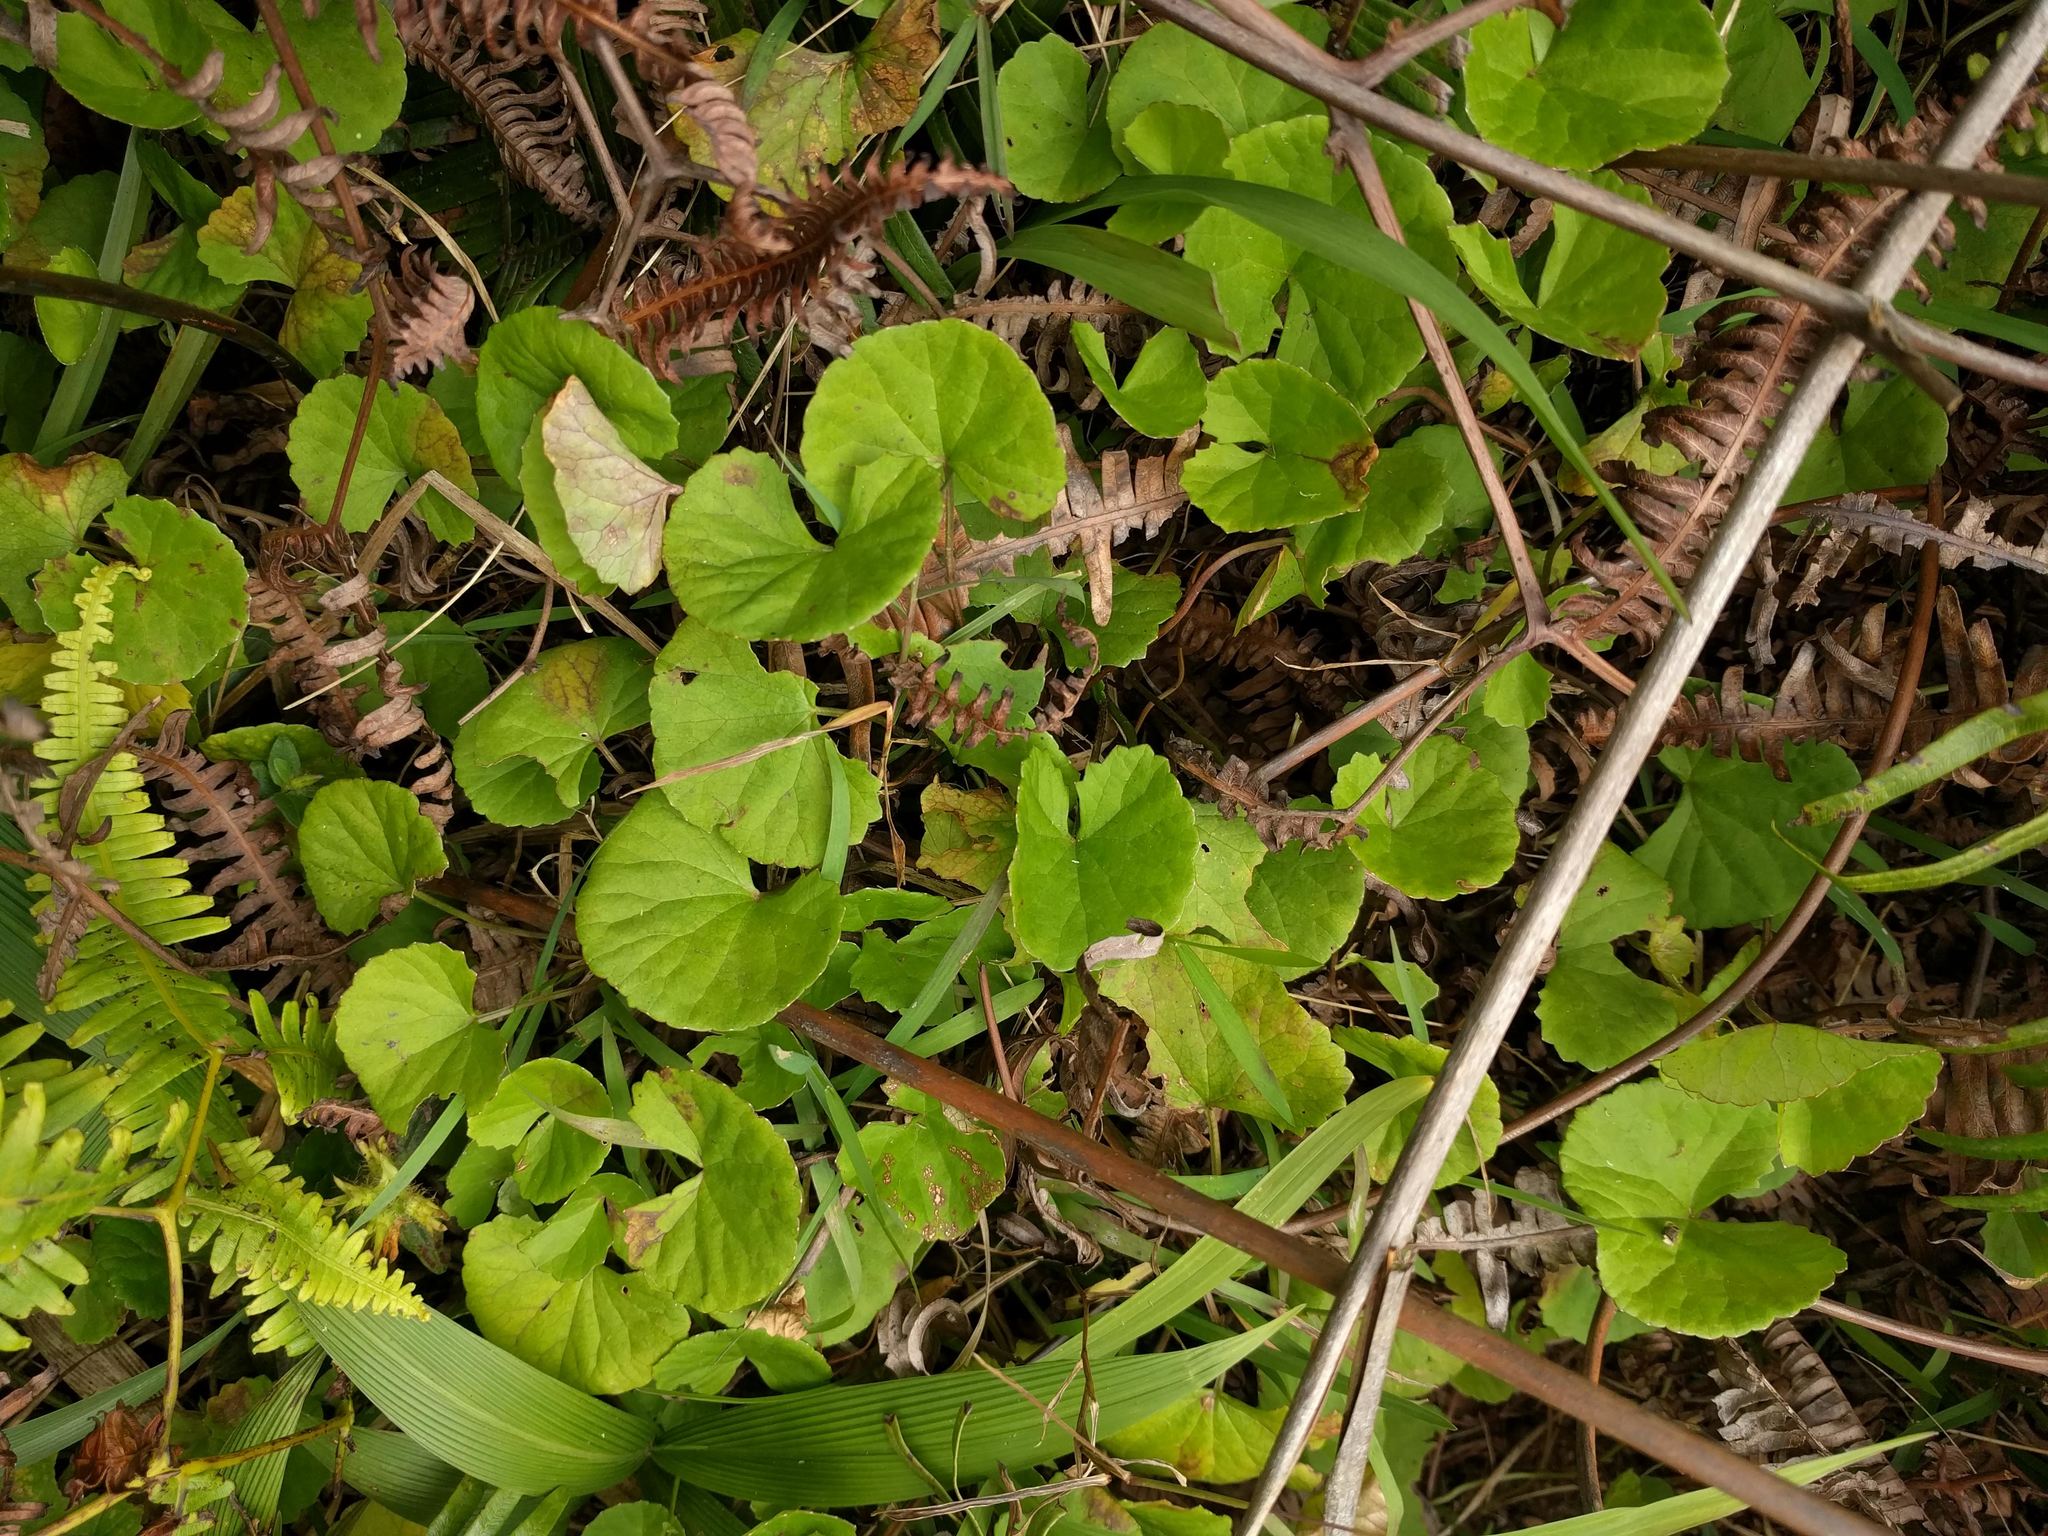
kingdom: Plantae
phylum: Tracheophyta
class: Magnoliopsida
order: Apiales
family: Apiaceae
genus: Centella
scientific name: Centella asiatica
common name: Spadeleaf
